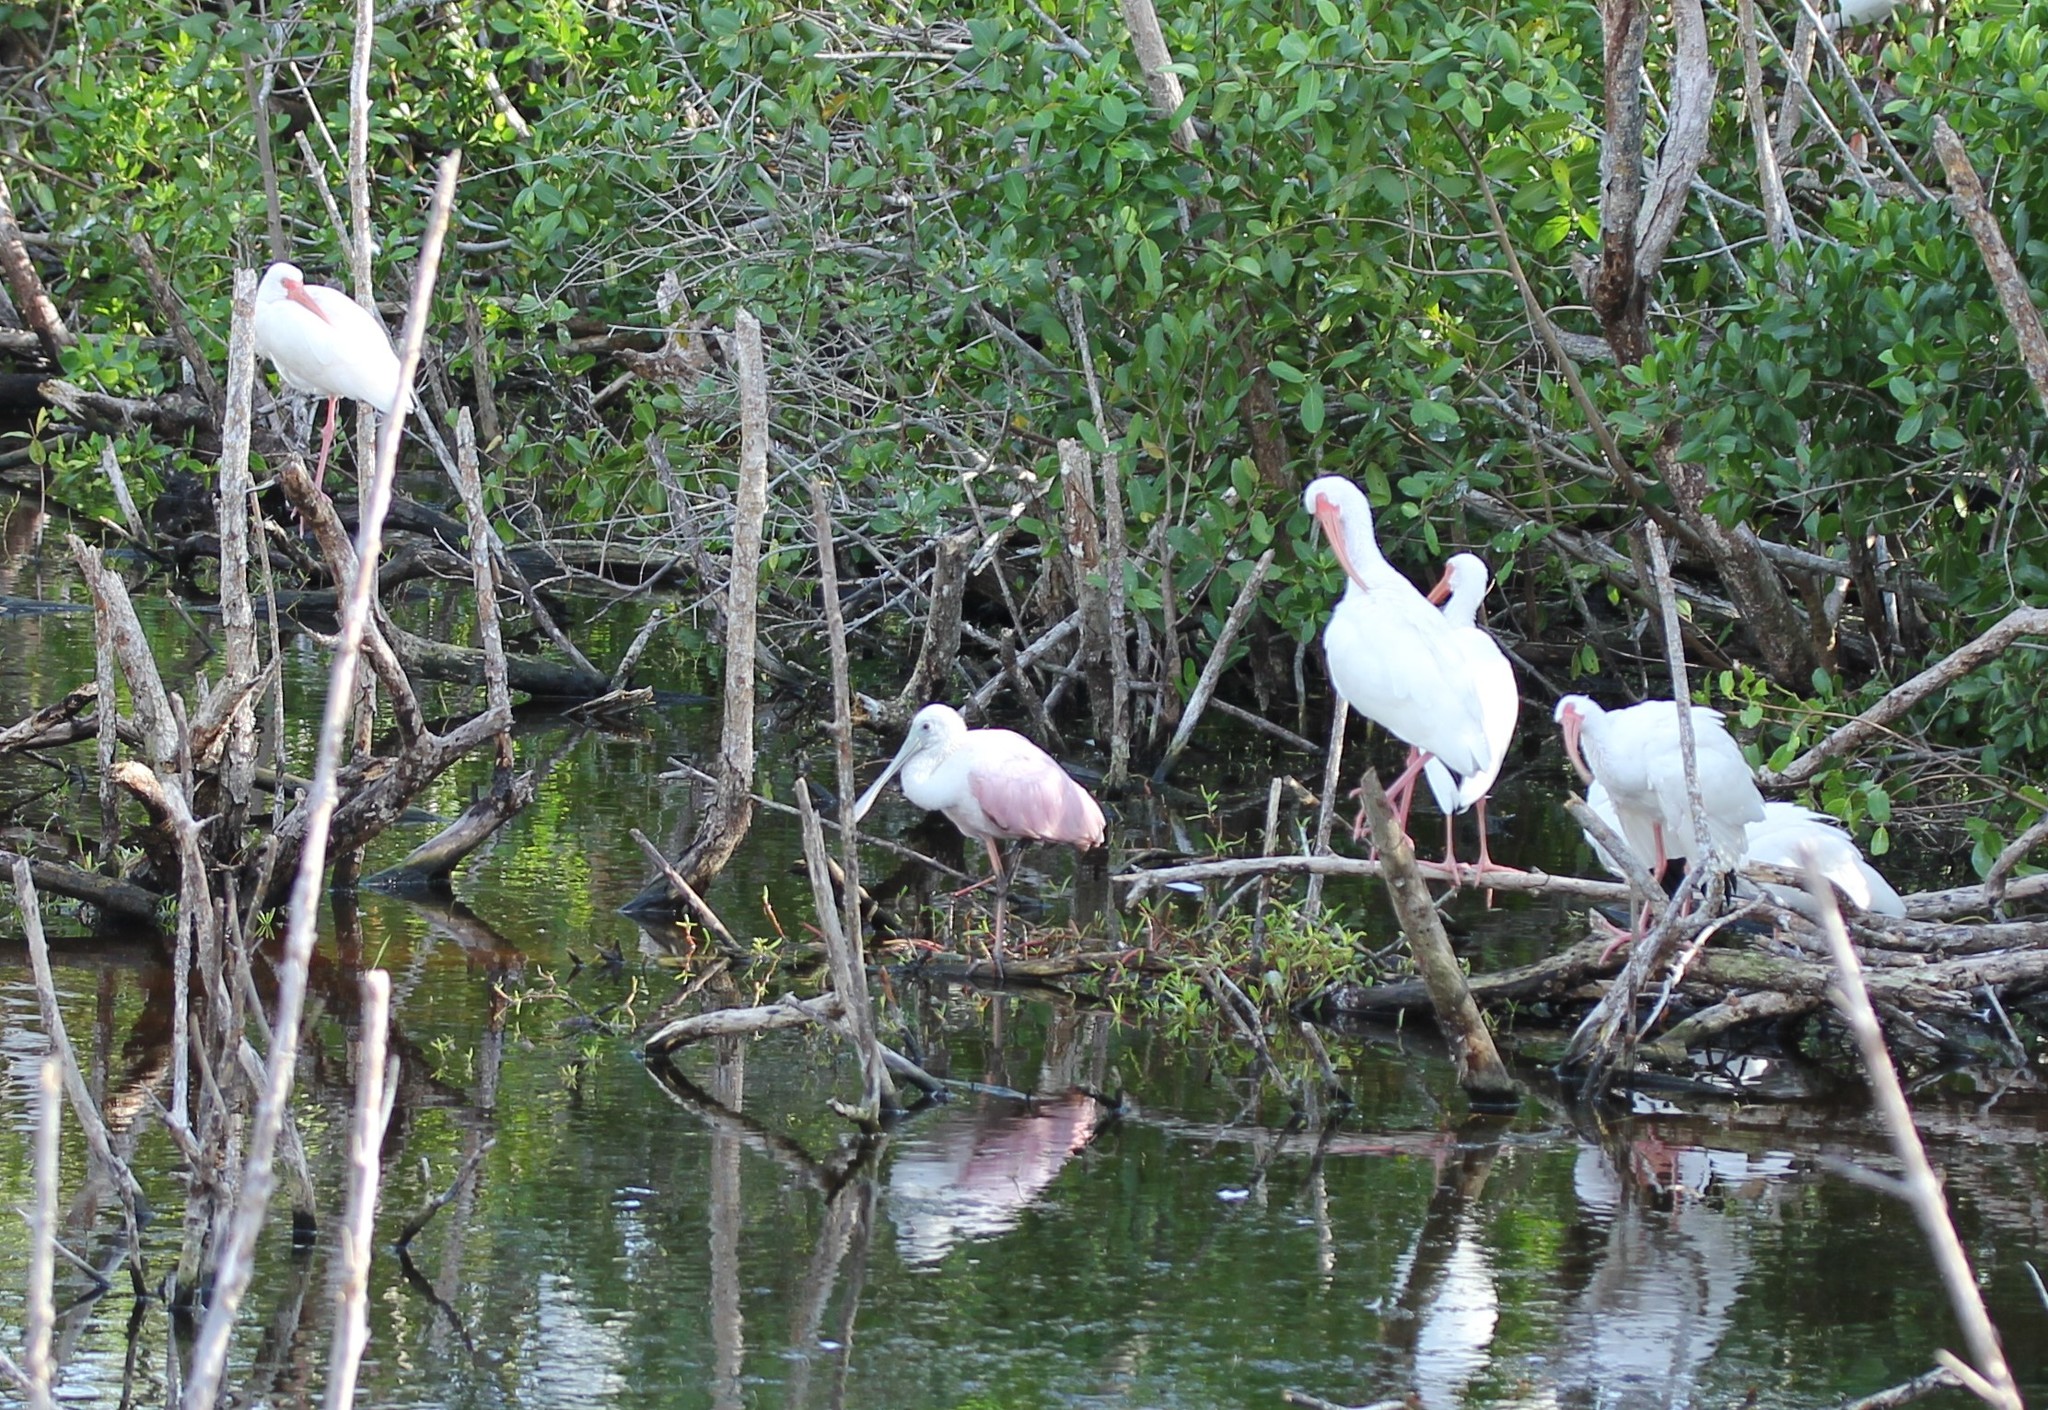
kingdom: Animalia
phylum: Chordata
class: Aves
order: Pelecaniformes
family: Threskiornithidae
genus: Platalea
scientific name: Platalea ajaja
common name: Roseate spoonbill
